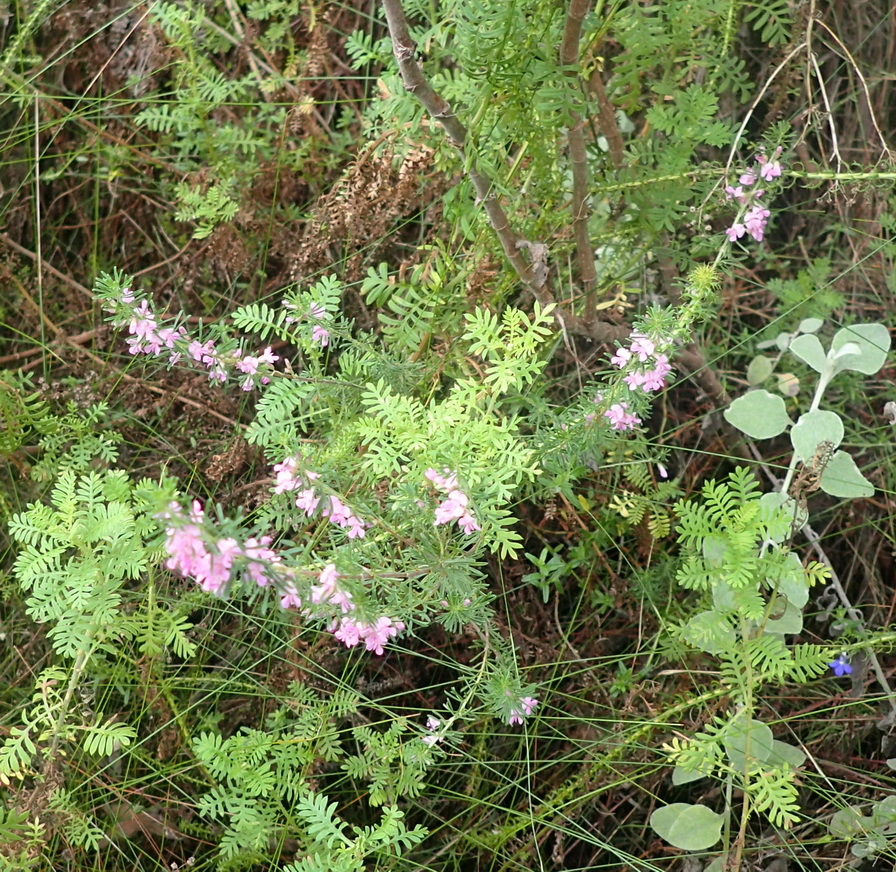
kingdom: Plantae
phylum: Tracheophyta
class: Magnoliopsida
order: Fabales
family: Fabaceae
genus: Indigofera
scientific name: Indigofera pappei
